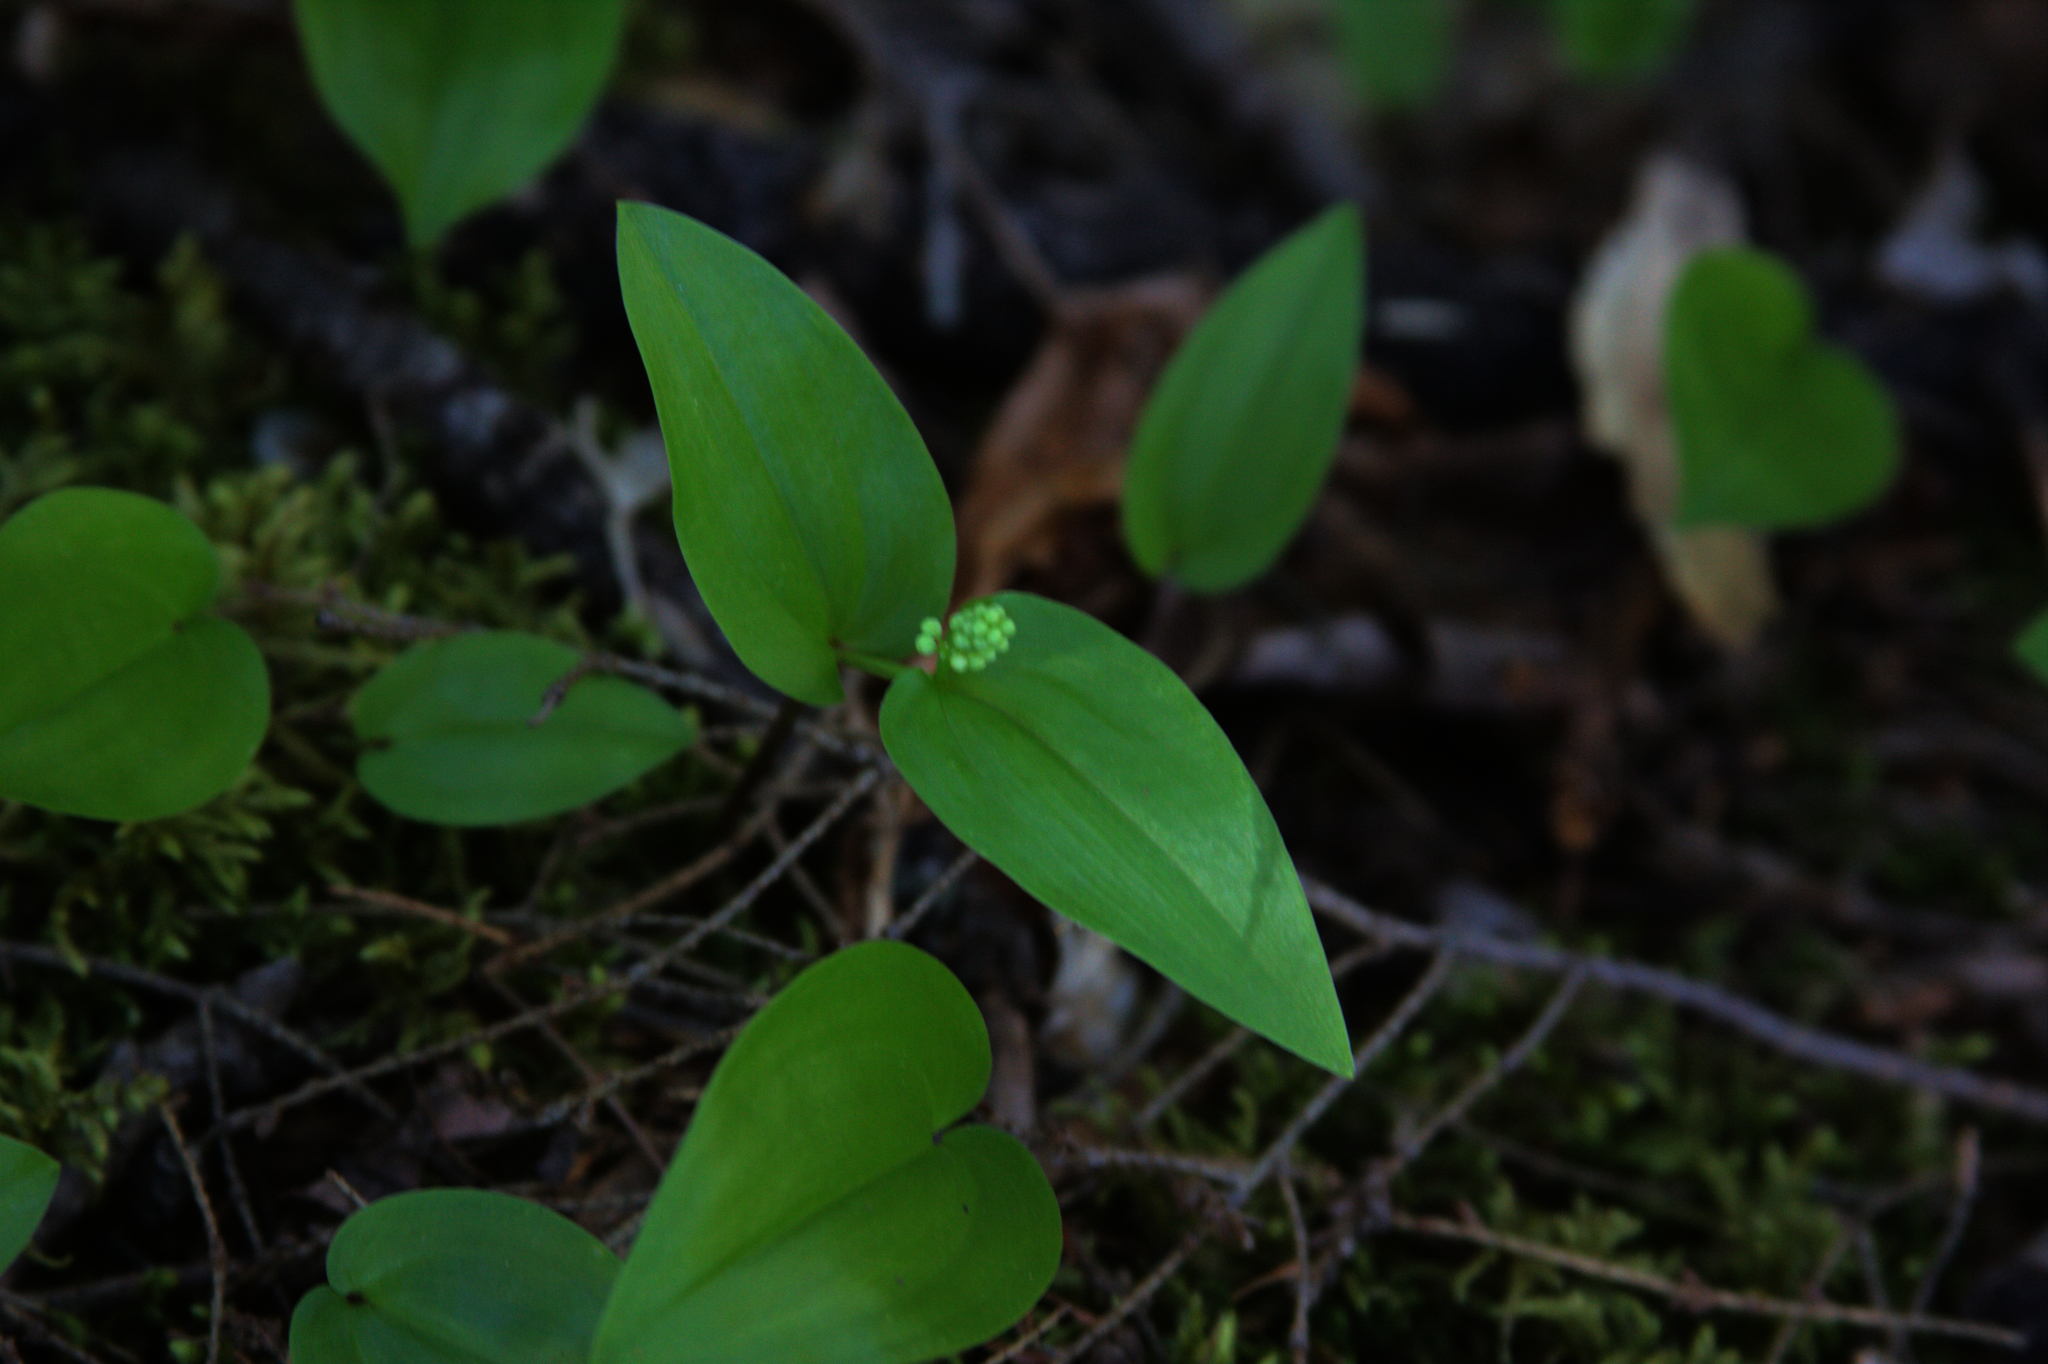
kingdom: Plantae
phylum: Tracheophyta
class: Liliopsida
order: Asparagales
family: Asparagaceae
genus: Maianthemum
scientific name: Maianthemum canadense
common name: False lily-of-the-valley
